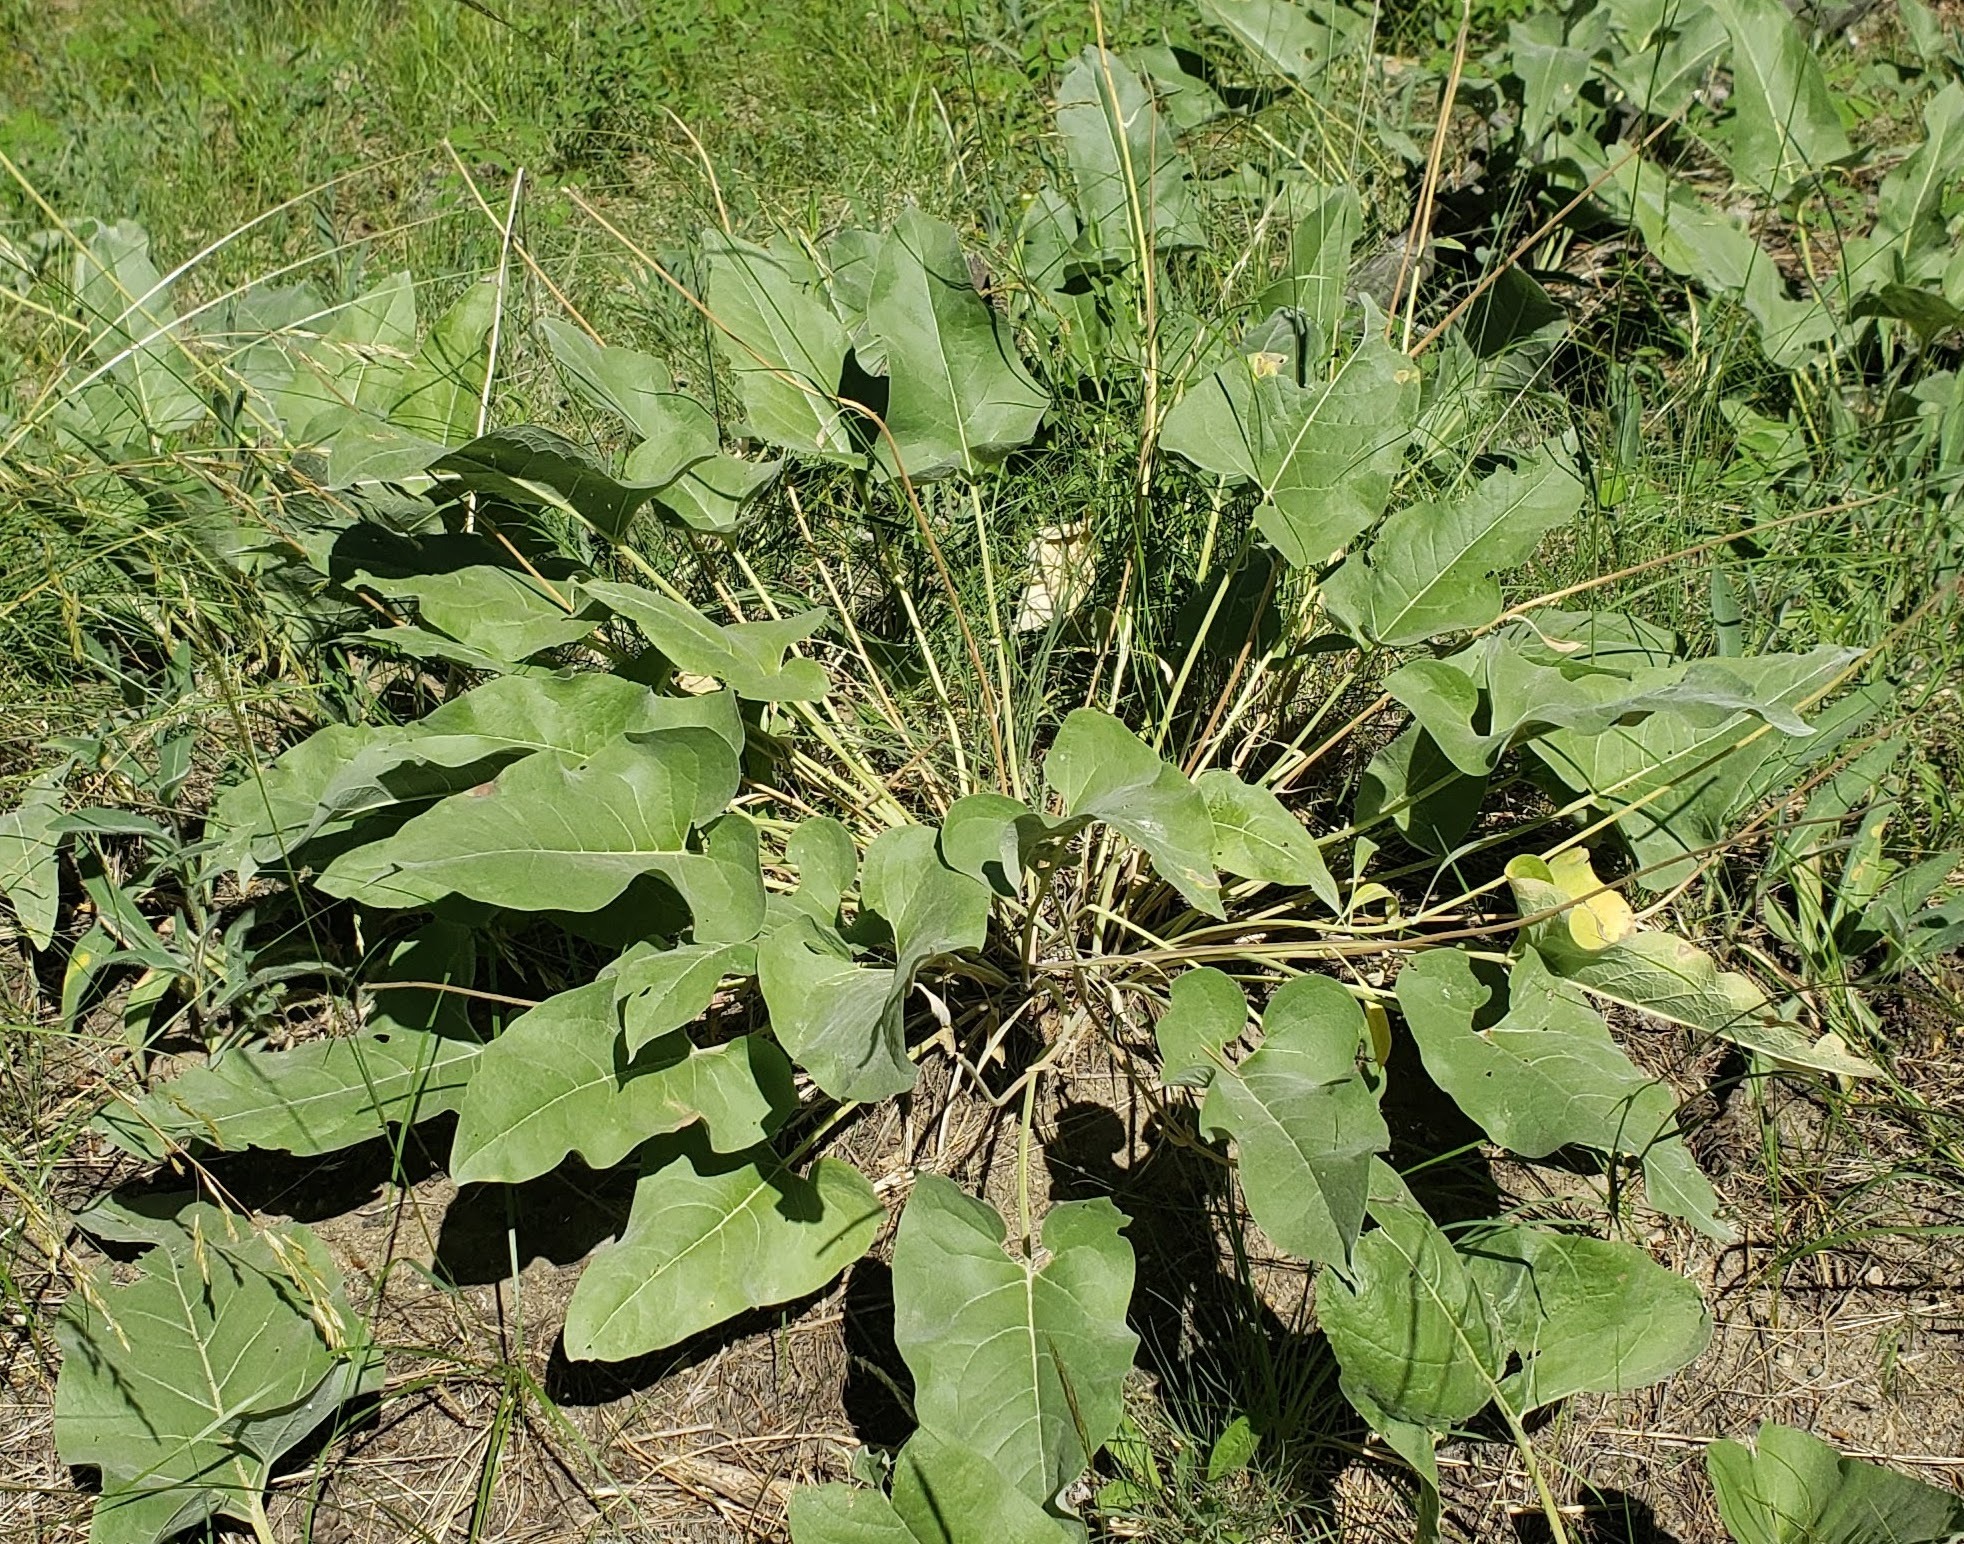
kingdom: Plantae
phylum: Tracheophyta
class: Magnoliopsida
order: Asterales
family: Asteraceae
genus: Wyethia
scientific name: Wyethia sagittata
